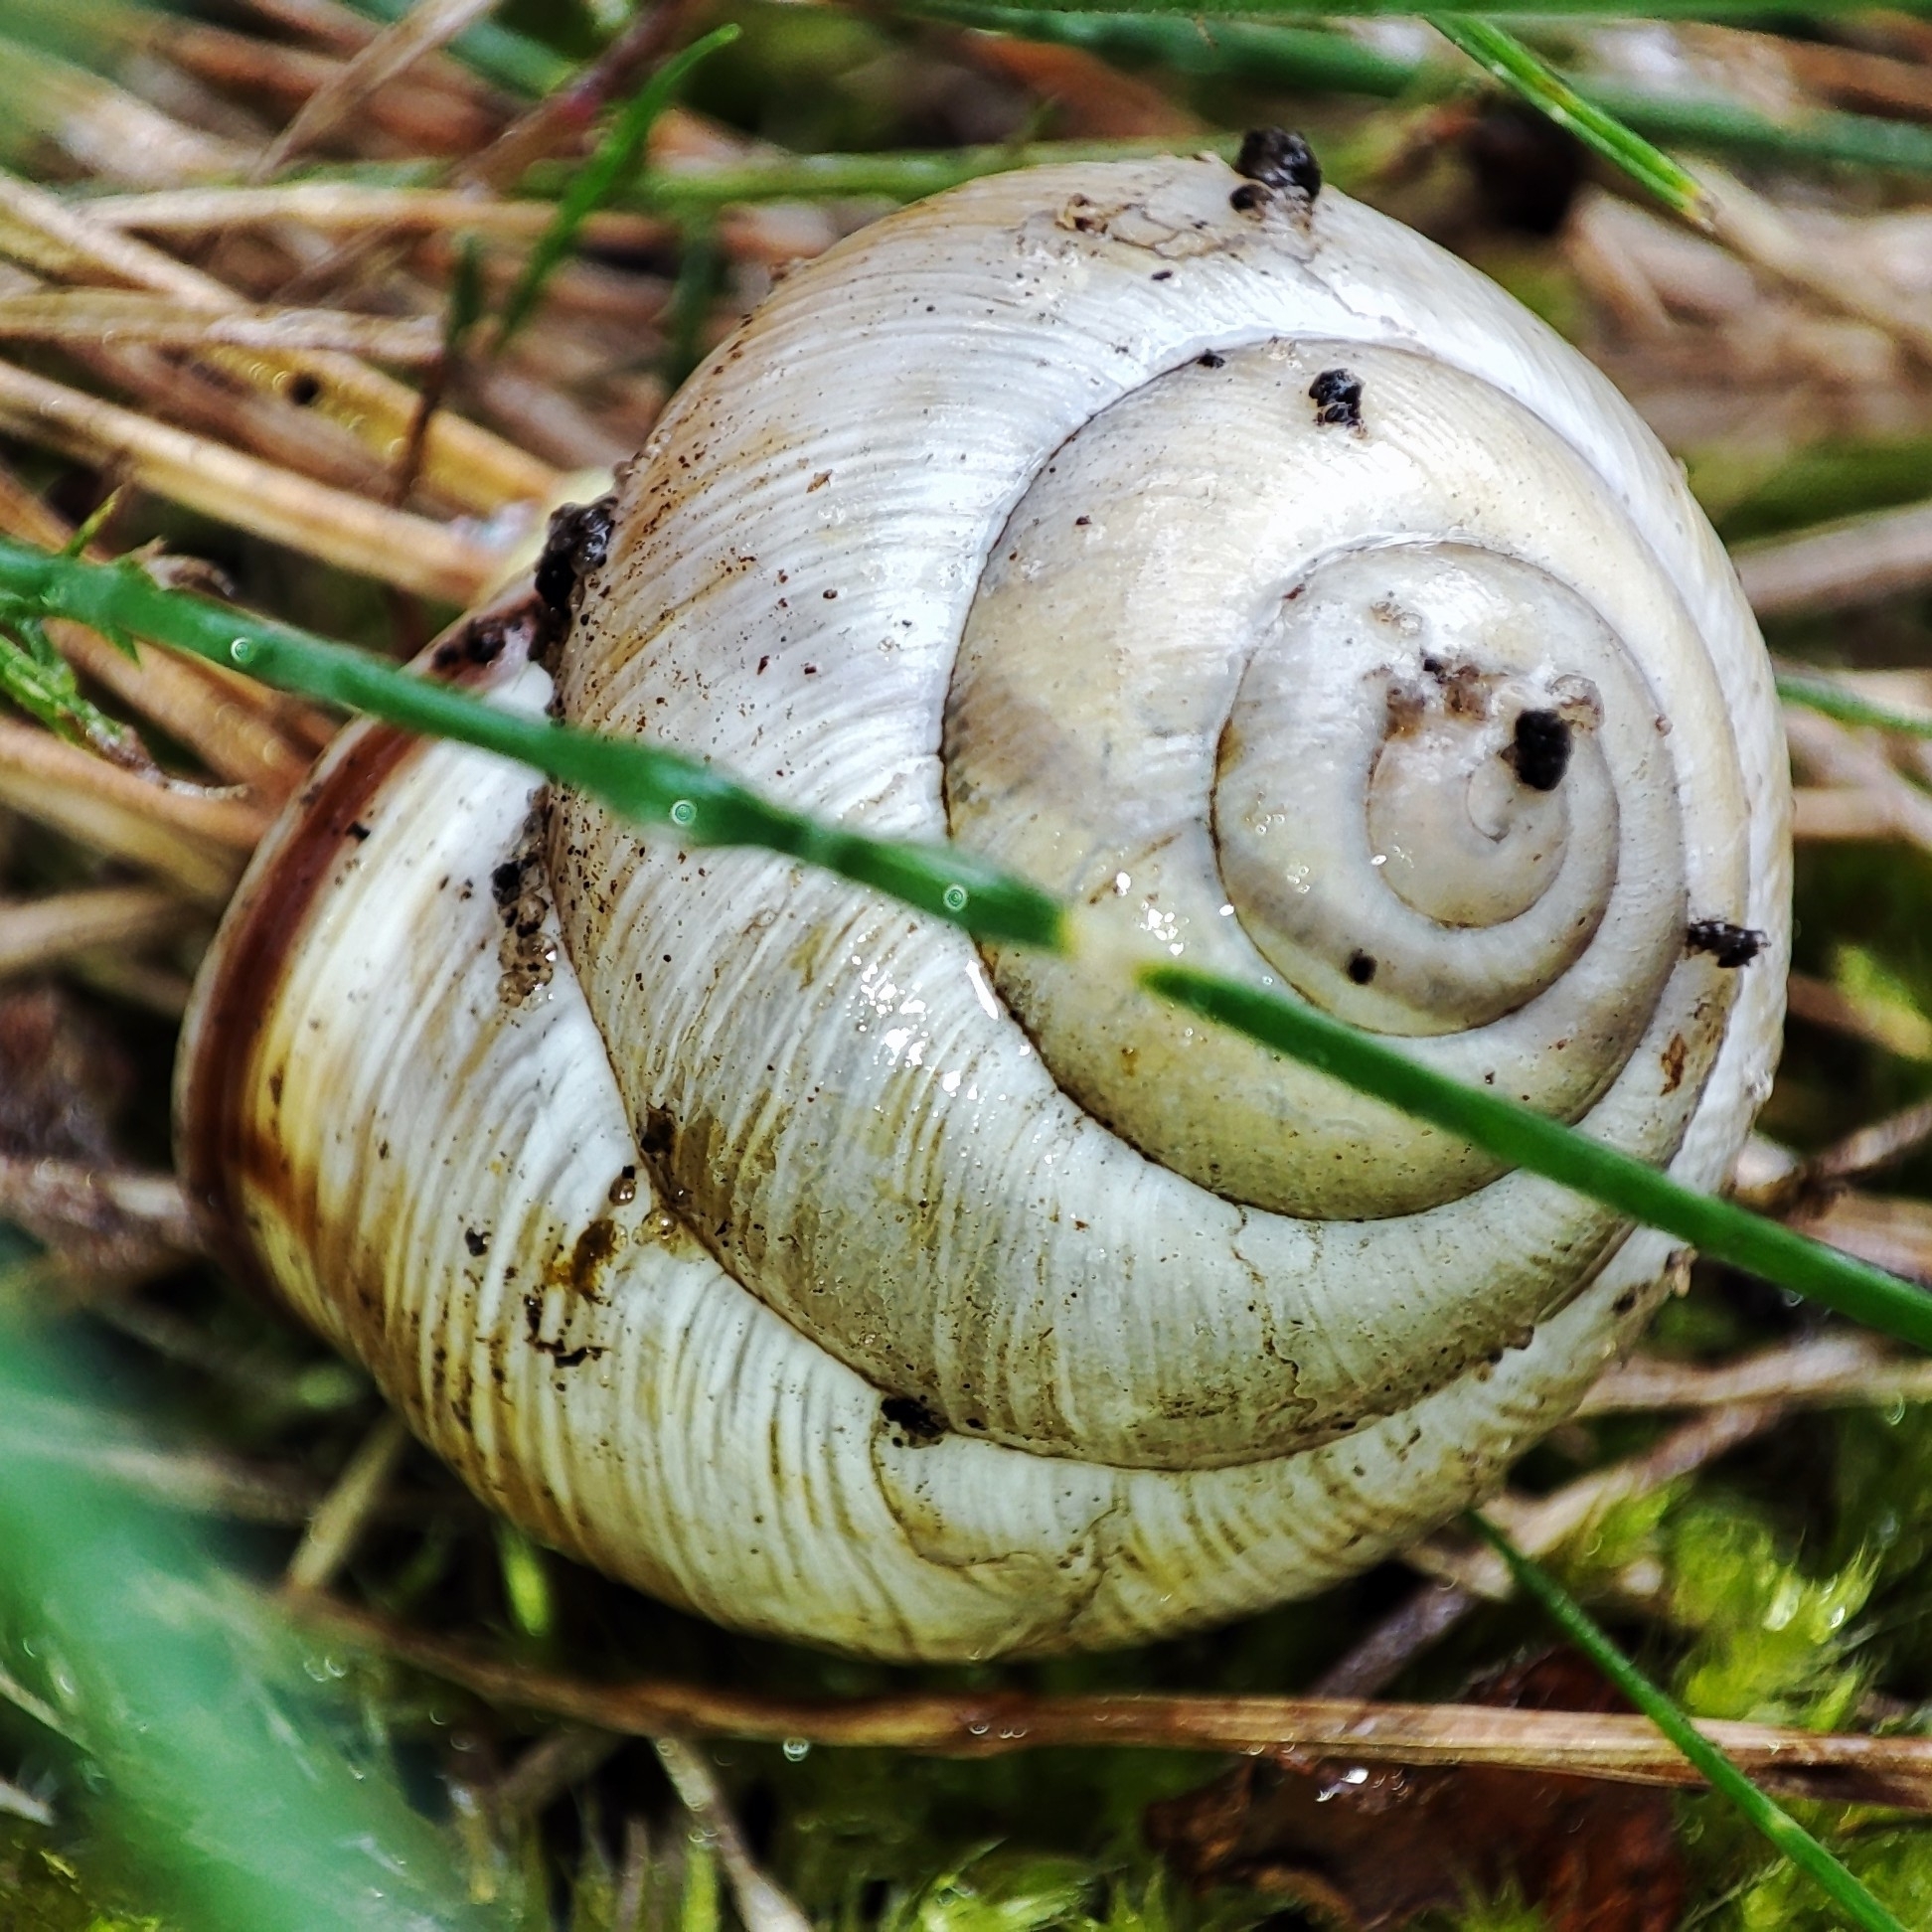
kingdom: Animalia
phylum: Mollusca
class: Gastropoda
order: Stylommatophora
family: Helicidae
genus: Caucasotachea
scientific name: Caucasotachea vindobonensis
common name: European helicid land snail
